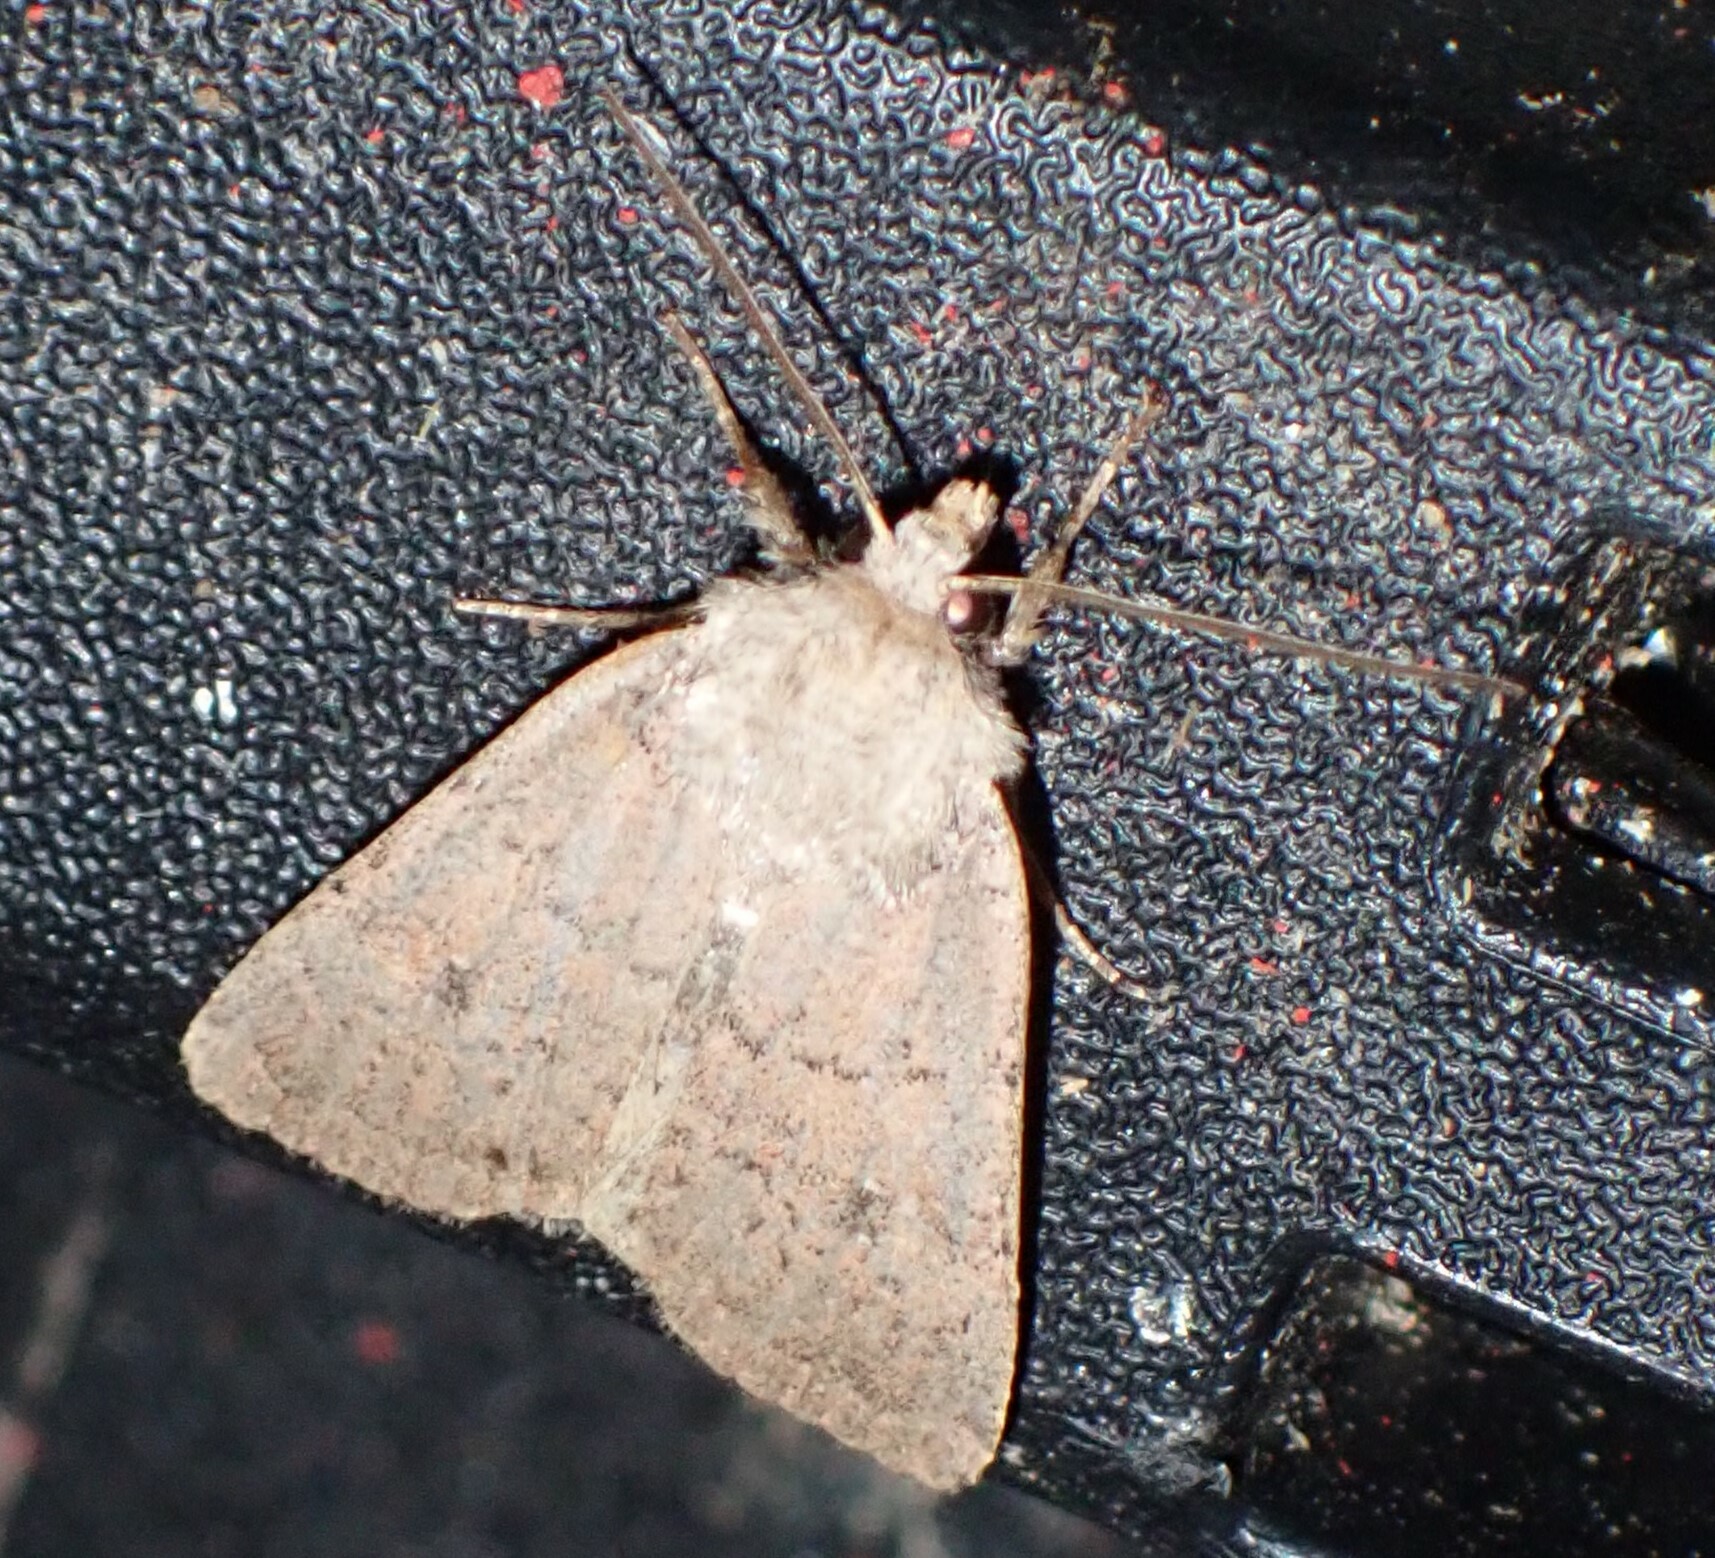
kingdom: Animalia
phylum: Arthropoda
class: Insecta
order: Lepidoptera
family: Noctuidae
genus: Homorthodes
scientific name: Homorthodes fractura
